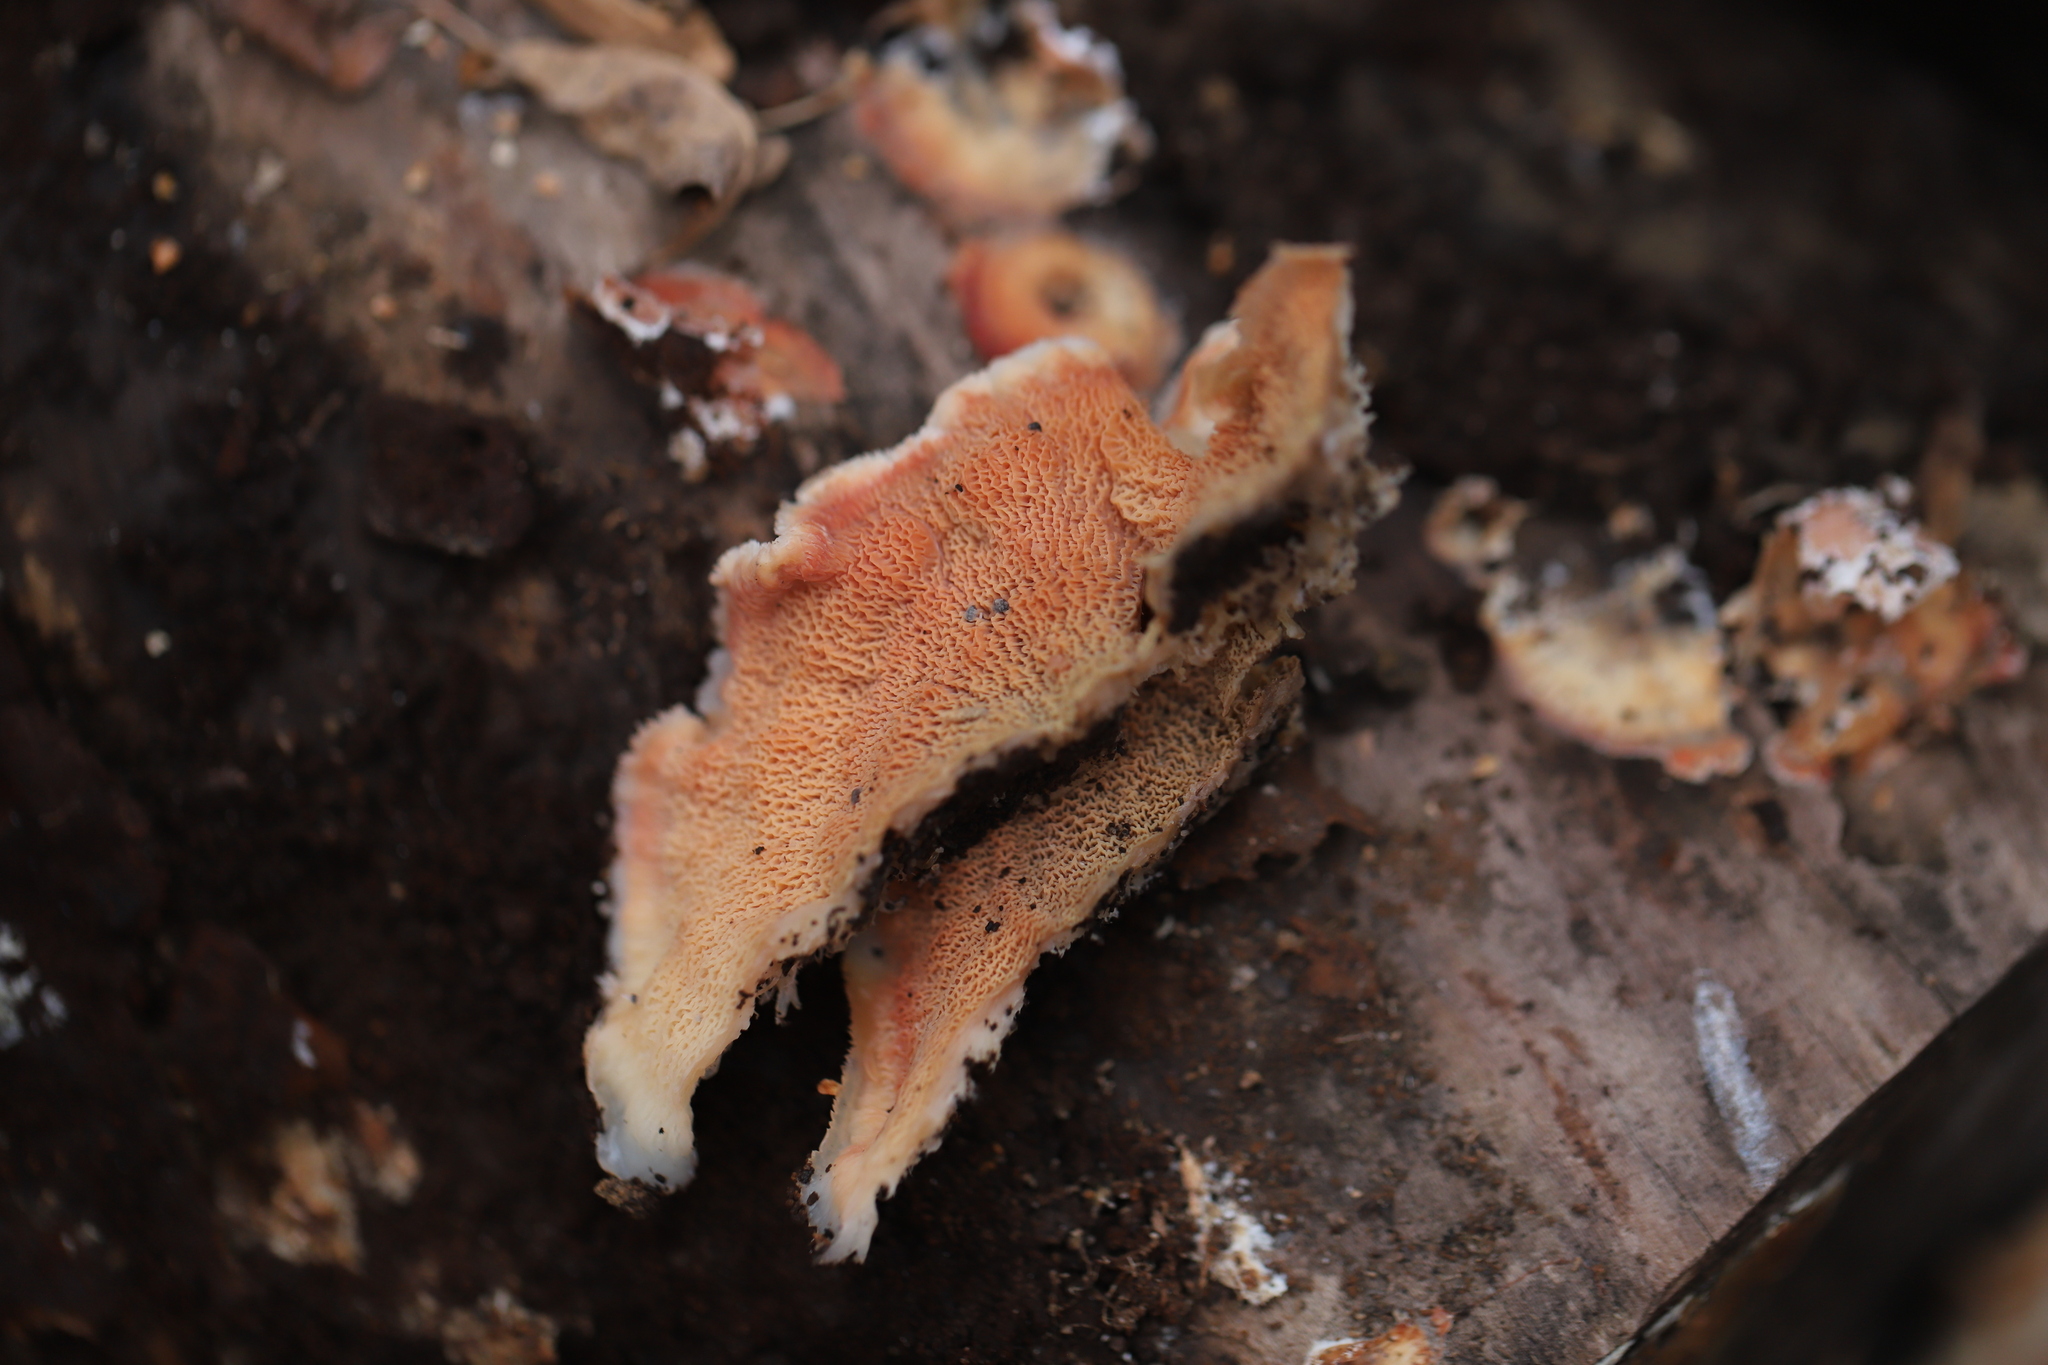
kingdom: Fungi
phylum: Basidiomycota
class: Agaricomycetes
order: Polyporales
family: Meruliaceae
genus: Phlebia
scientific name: Phlebia tremellosa
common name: Jelly rot
